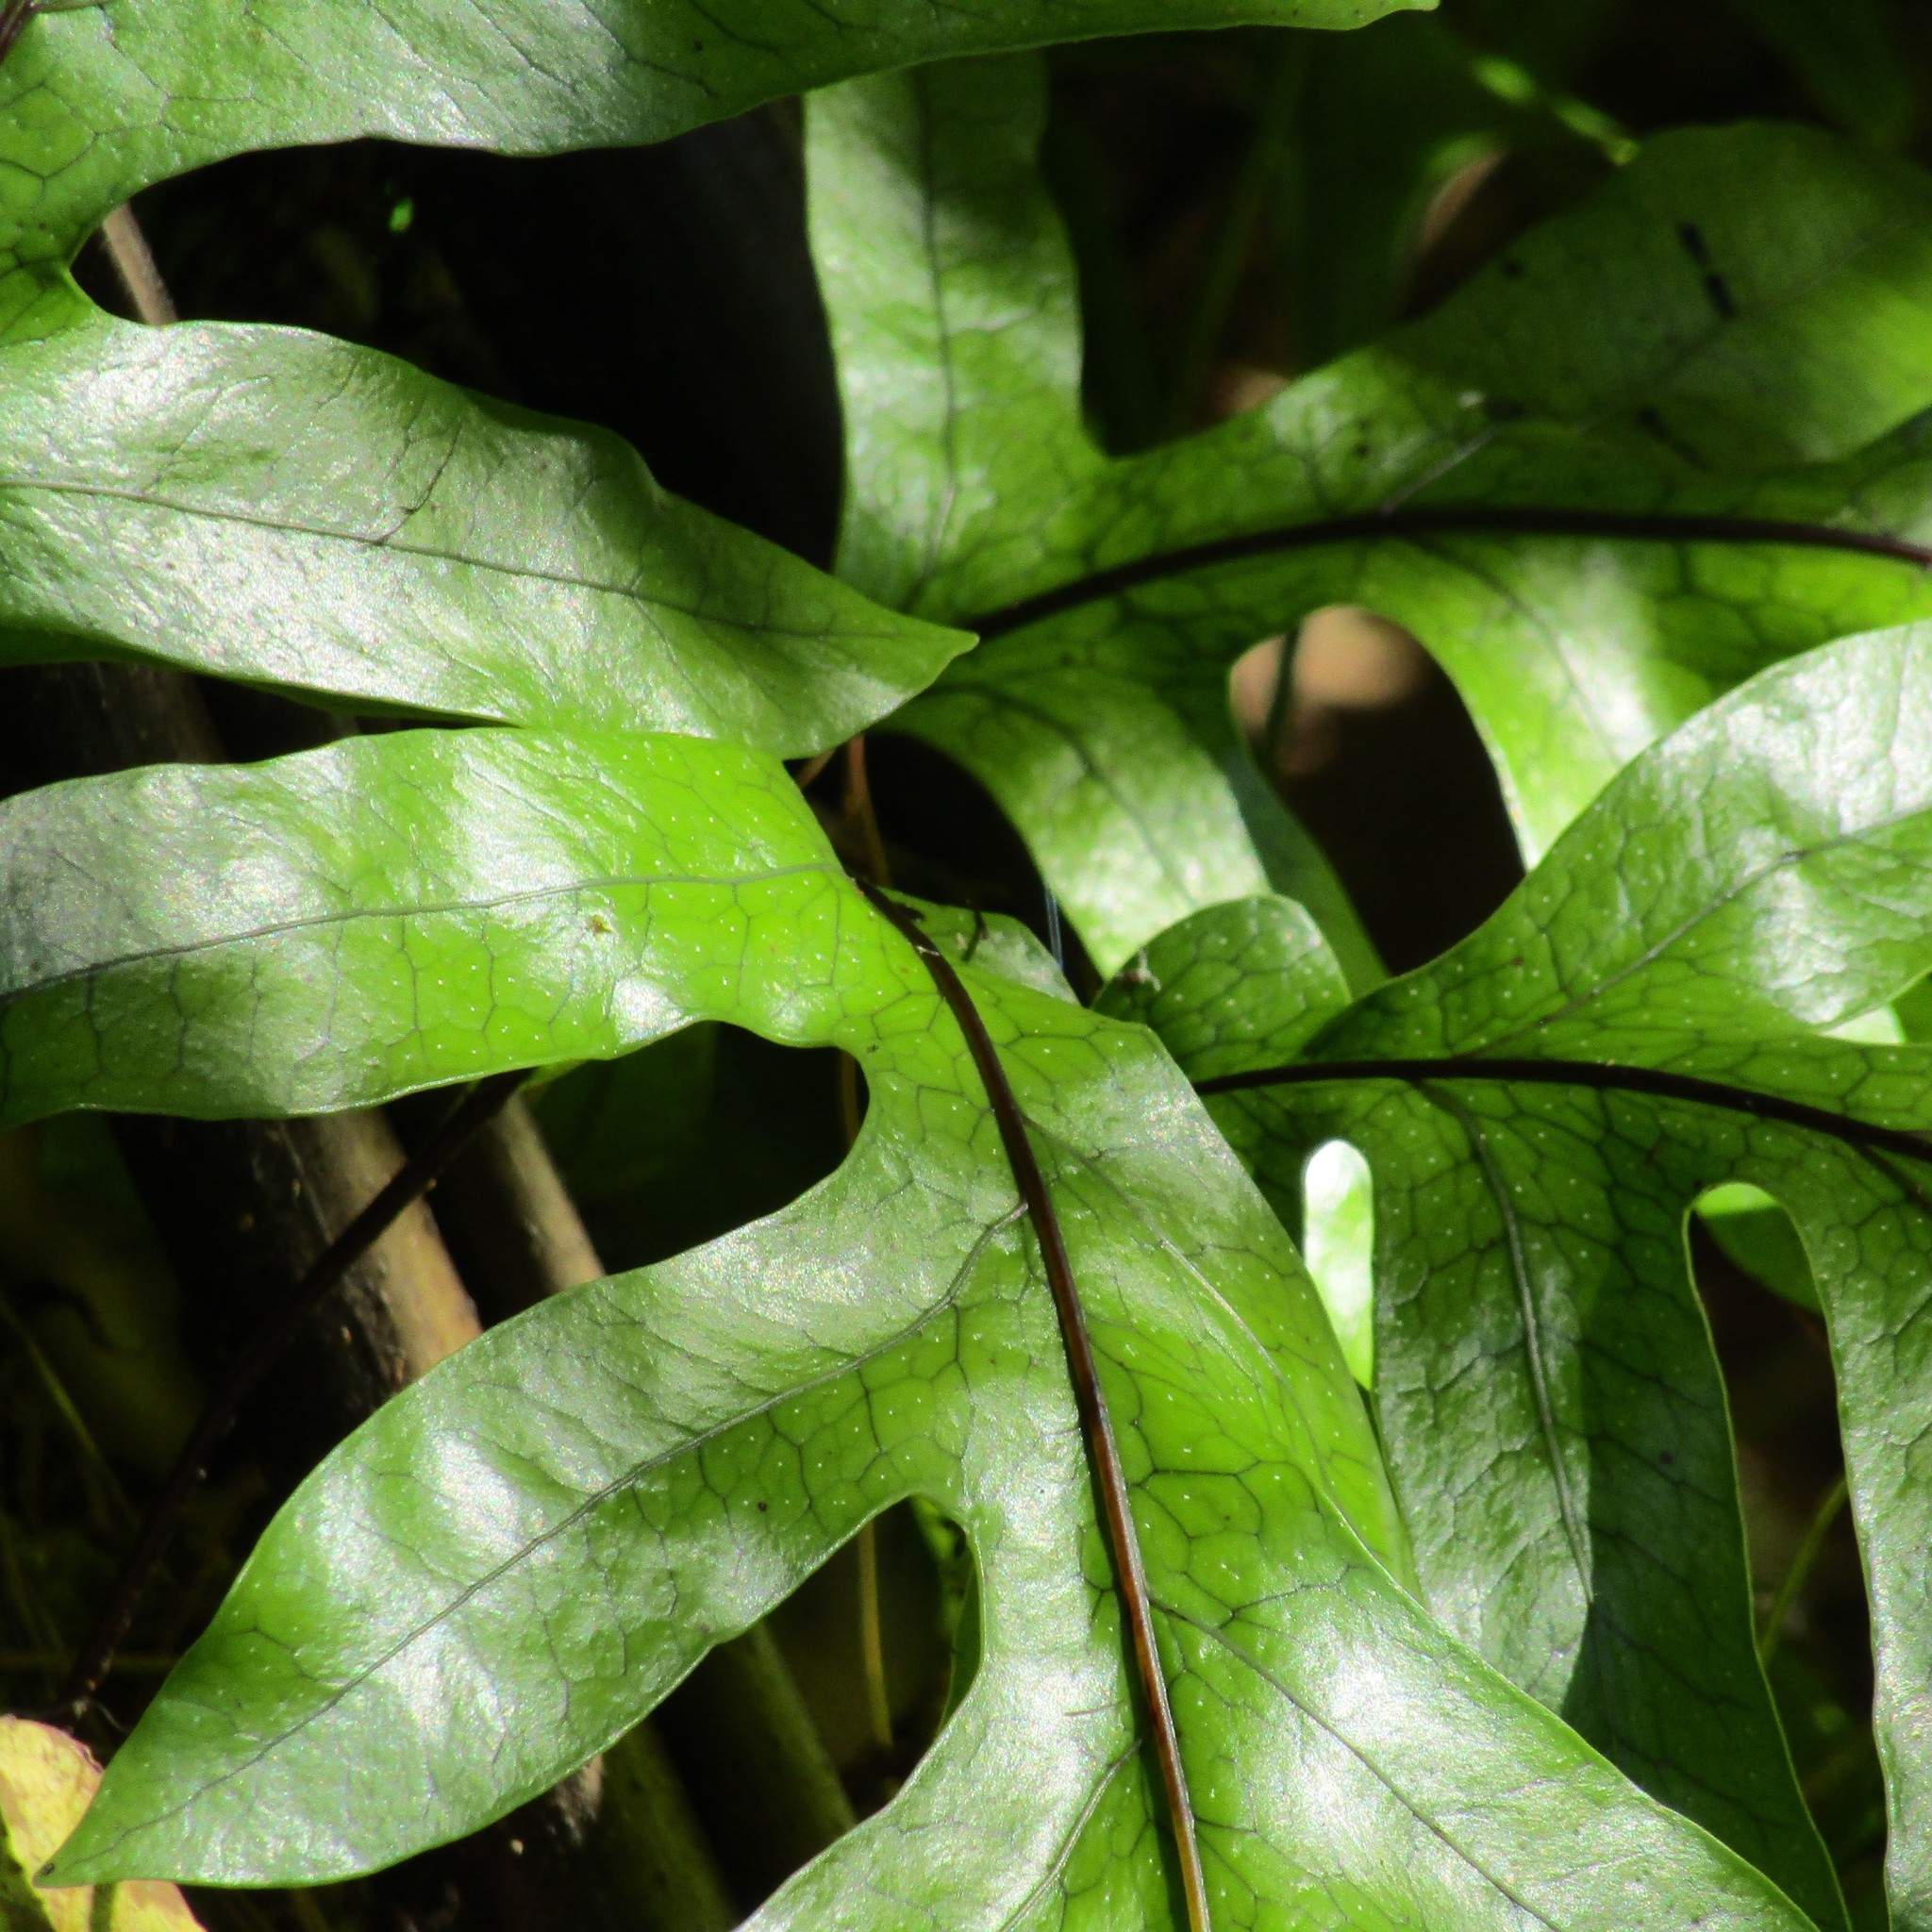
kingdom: Plantae
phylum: Tracheophyta
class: Polypodiopsida
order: Polypodiales
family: Polypodiaceae
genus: Lecanopteris
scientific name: Lecanopteris pustulata
